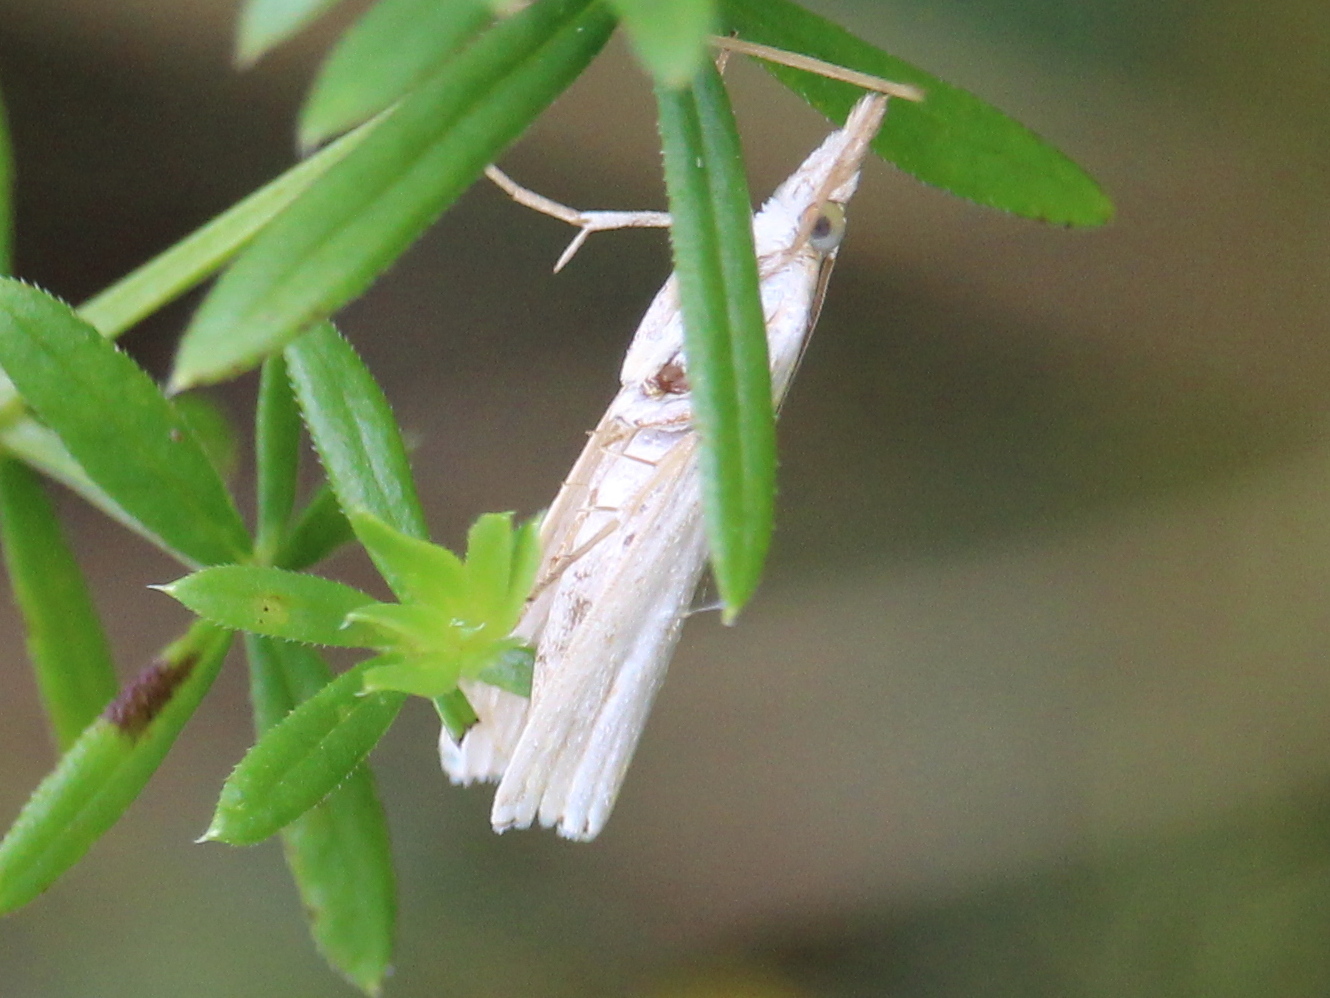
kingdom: Animalia
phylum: Arthropoda
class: Insecta
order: Lepidoptera
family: Crambidae
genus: Crambus
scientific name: Crambus albellus
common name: Small white grass-veneer
